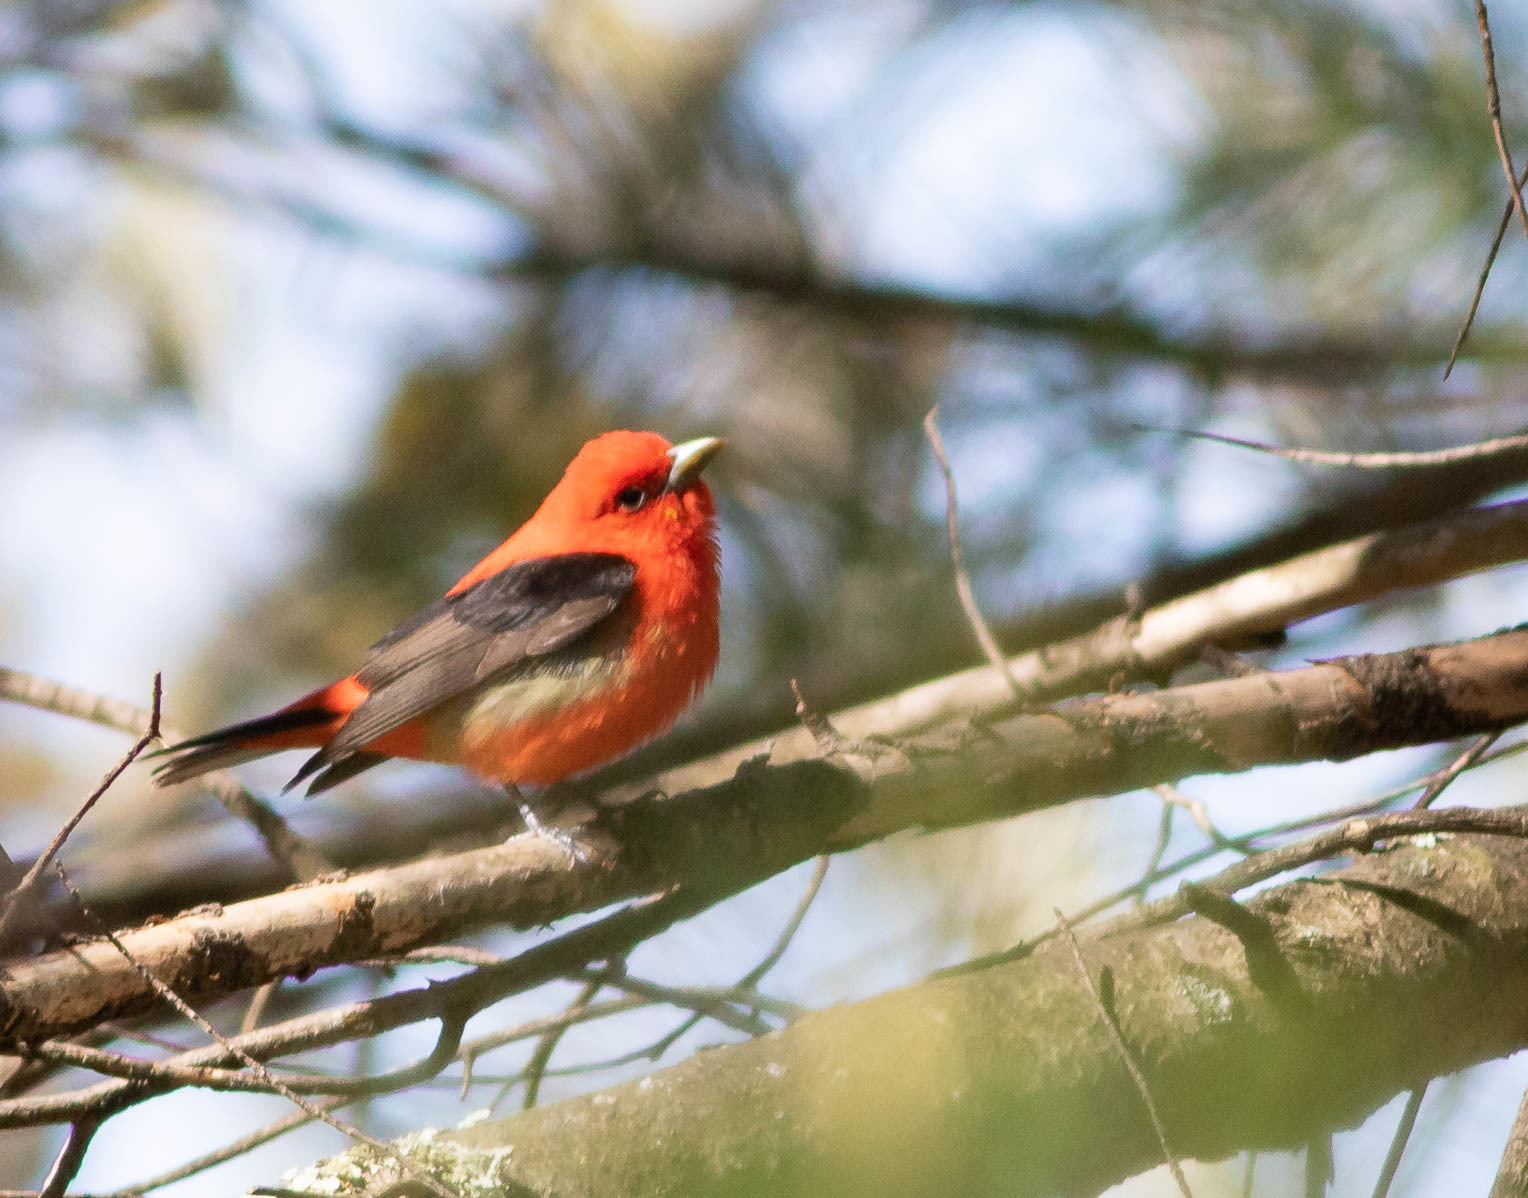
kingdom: Animalia
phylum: Chordata
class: Aves
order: Passeriformes
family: Cardinalidae
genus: Piranga
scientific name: Piranga olivacea
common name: Scarlet tanager
